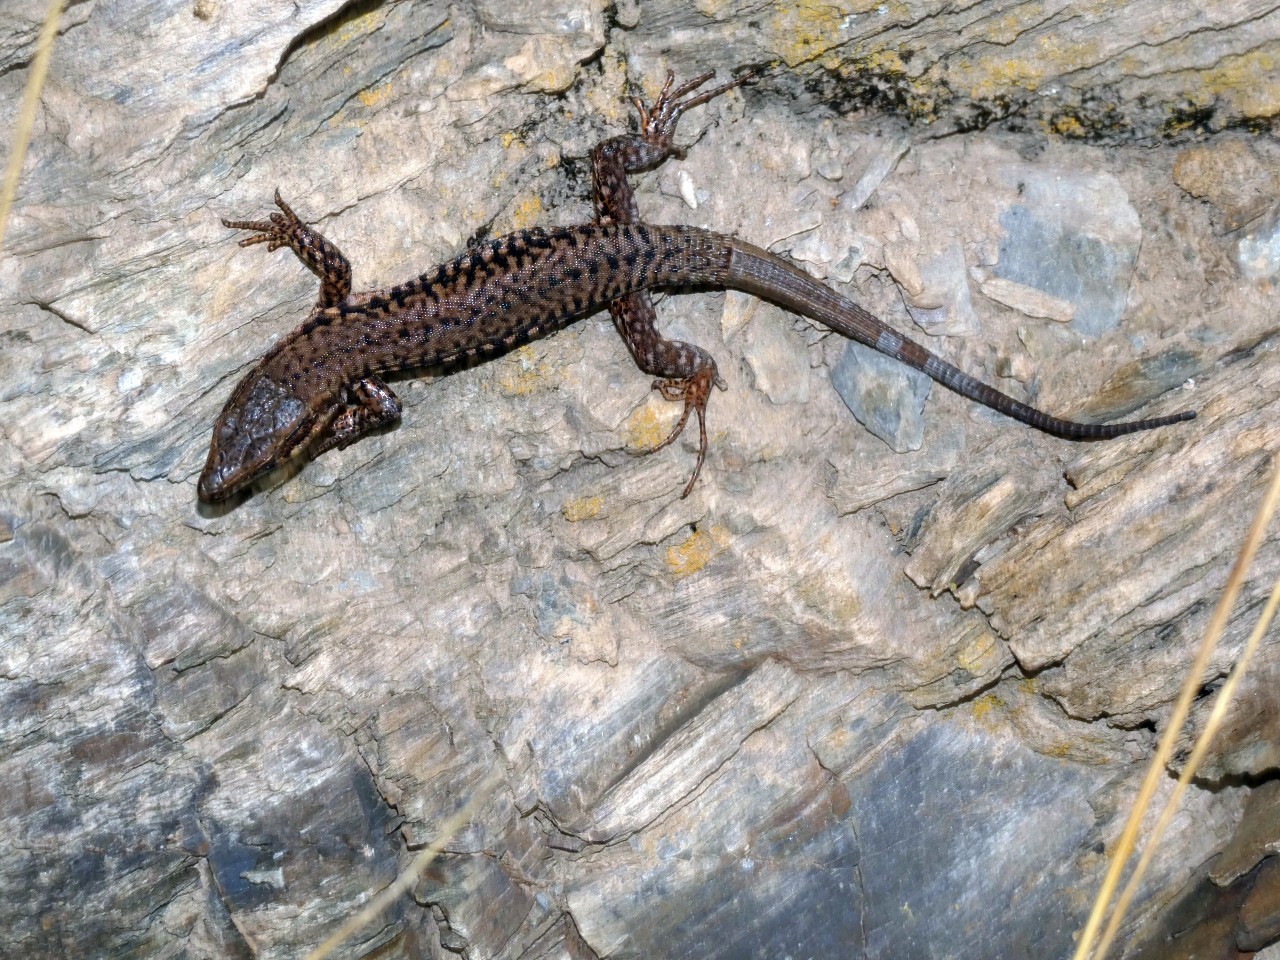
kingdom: Animalia
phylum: Chordata
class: Squamata
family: Lacertidae
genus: Podarcis
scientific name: Podarcis muralis
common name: Common wall lizard
